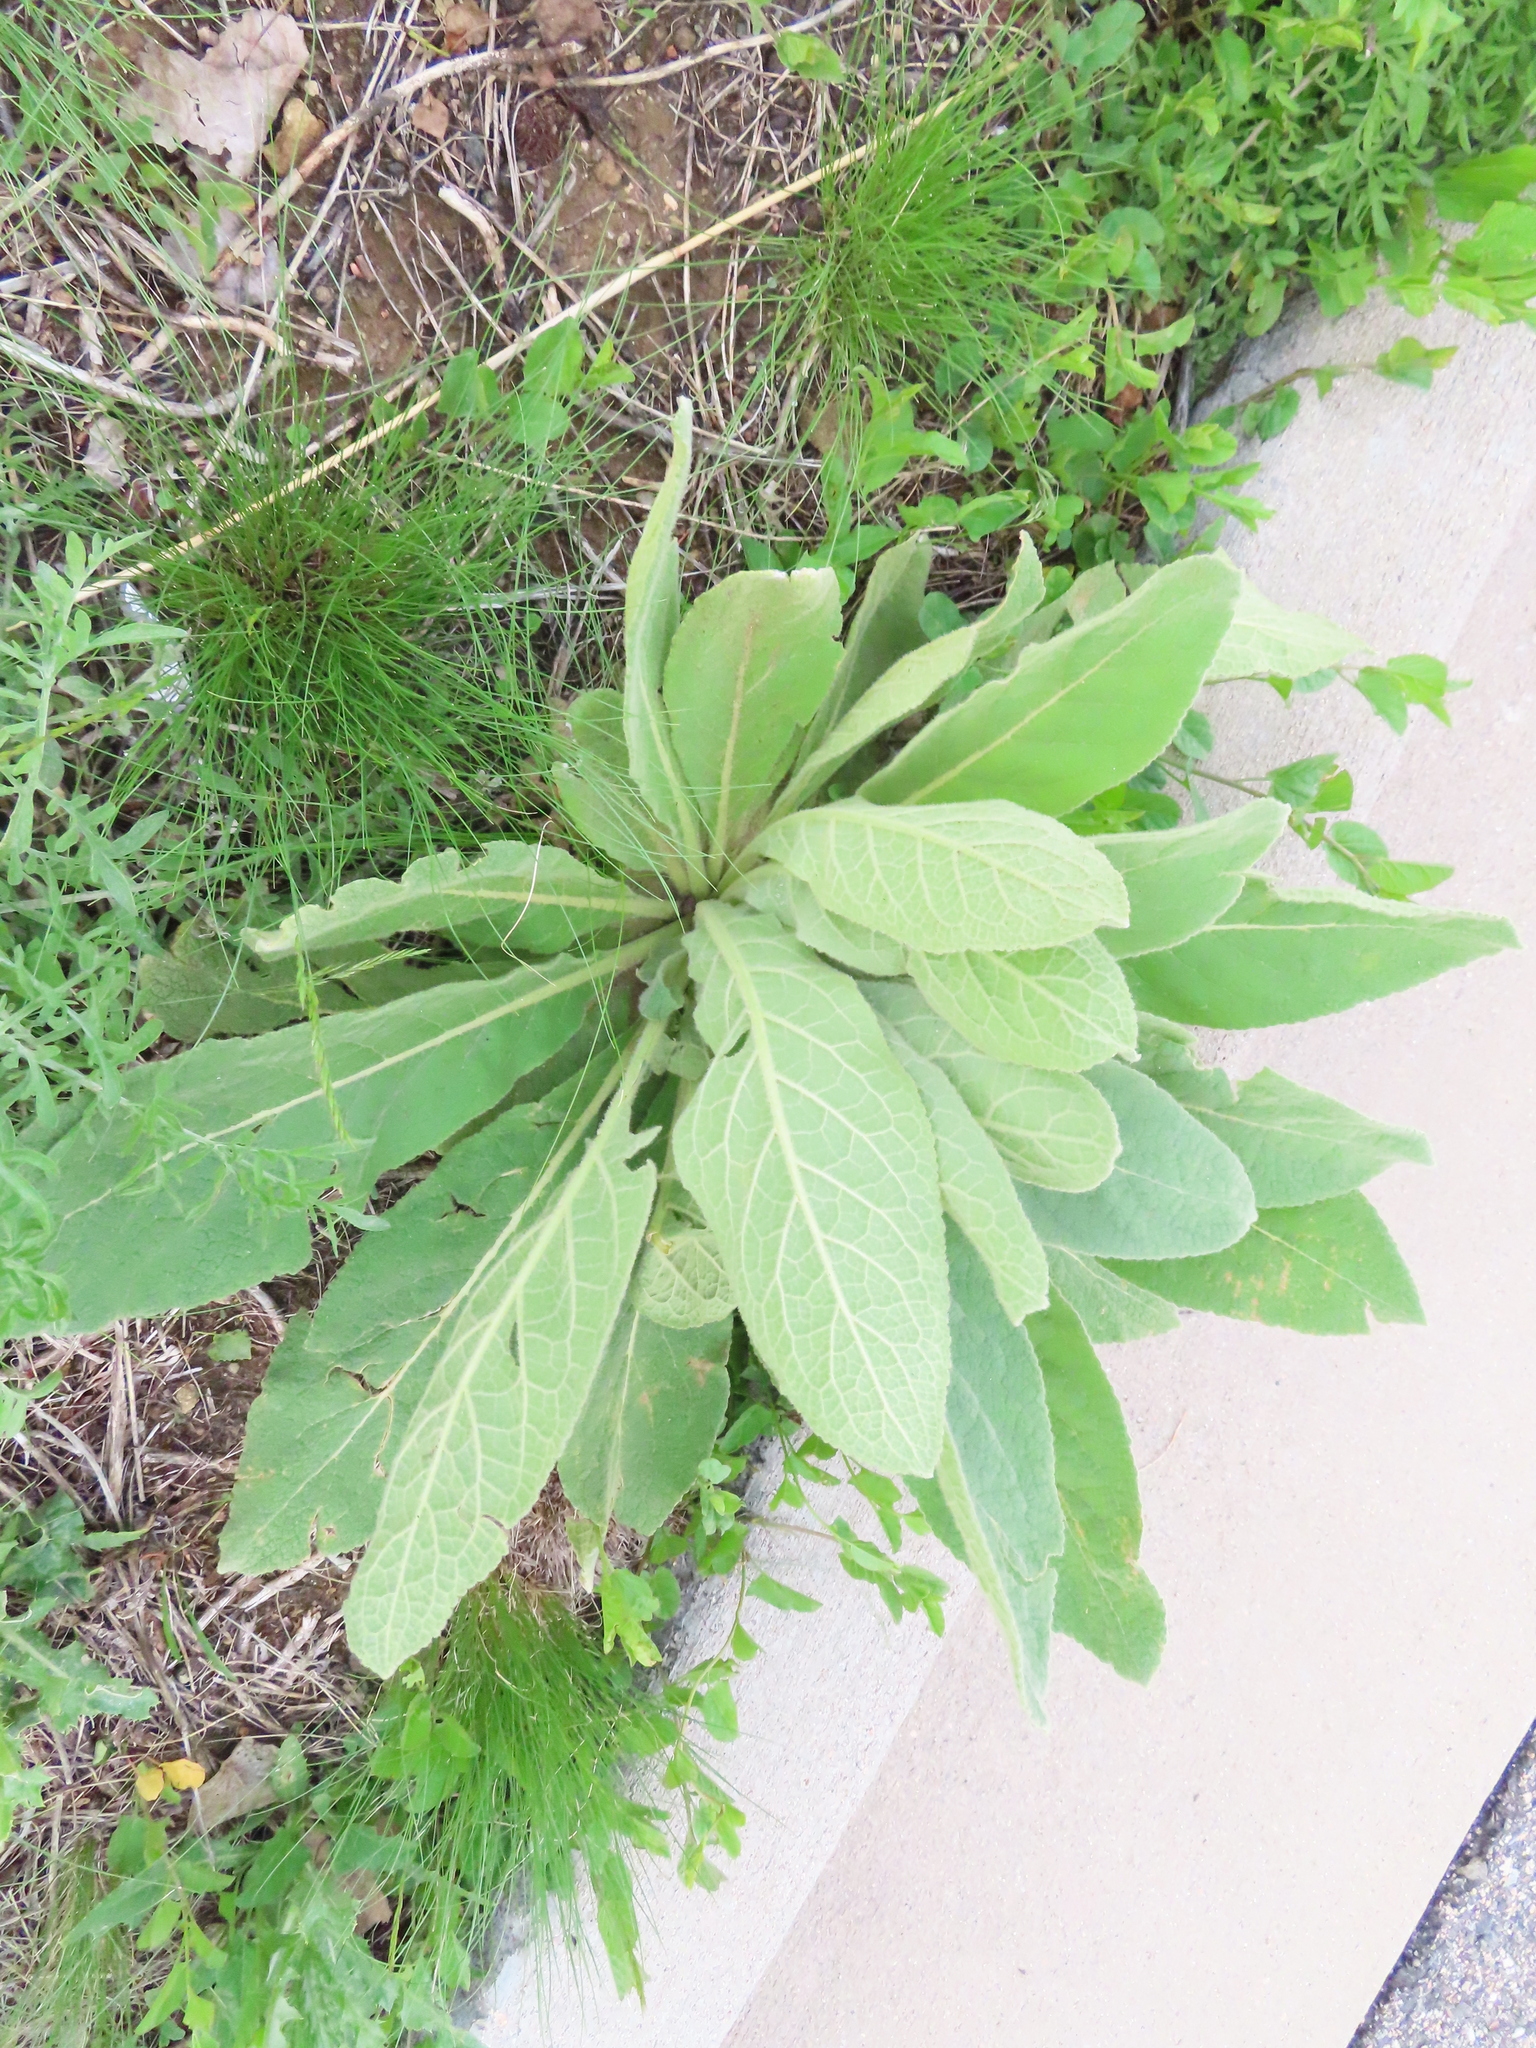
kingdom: Plantae
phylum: Tracheophyta
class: Magnoliopsida
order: Lamiales
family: Scrophulariaceae
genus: Verbascum
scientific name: Verbascum thapsus
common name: Common mullein
